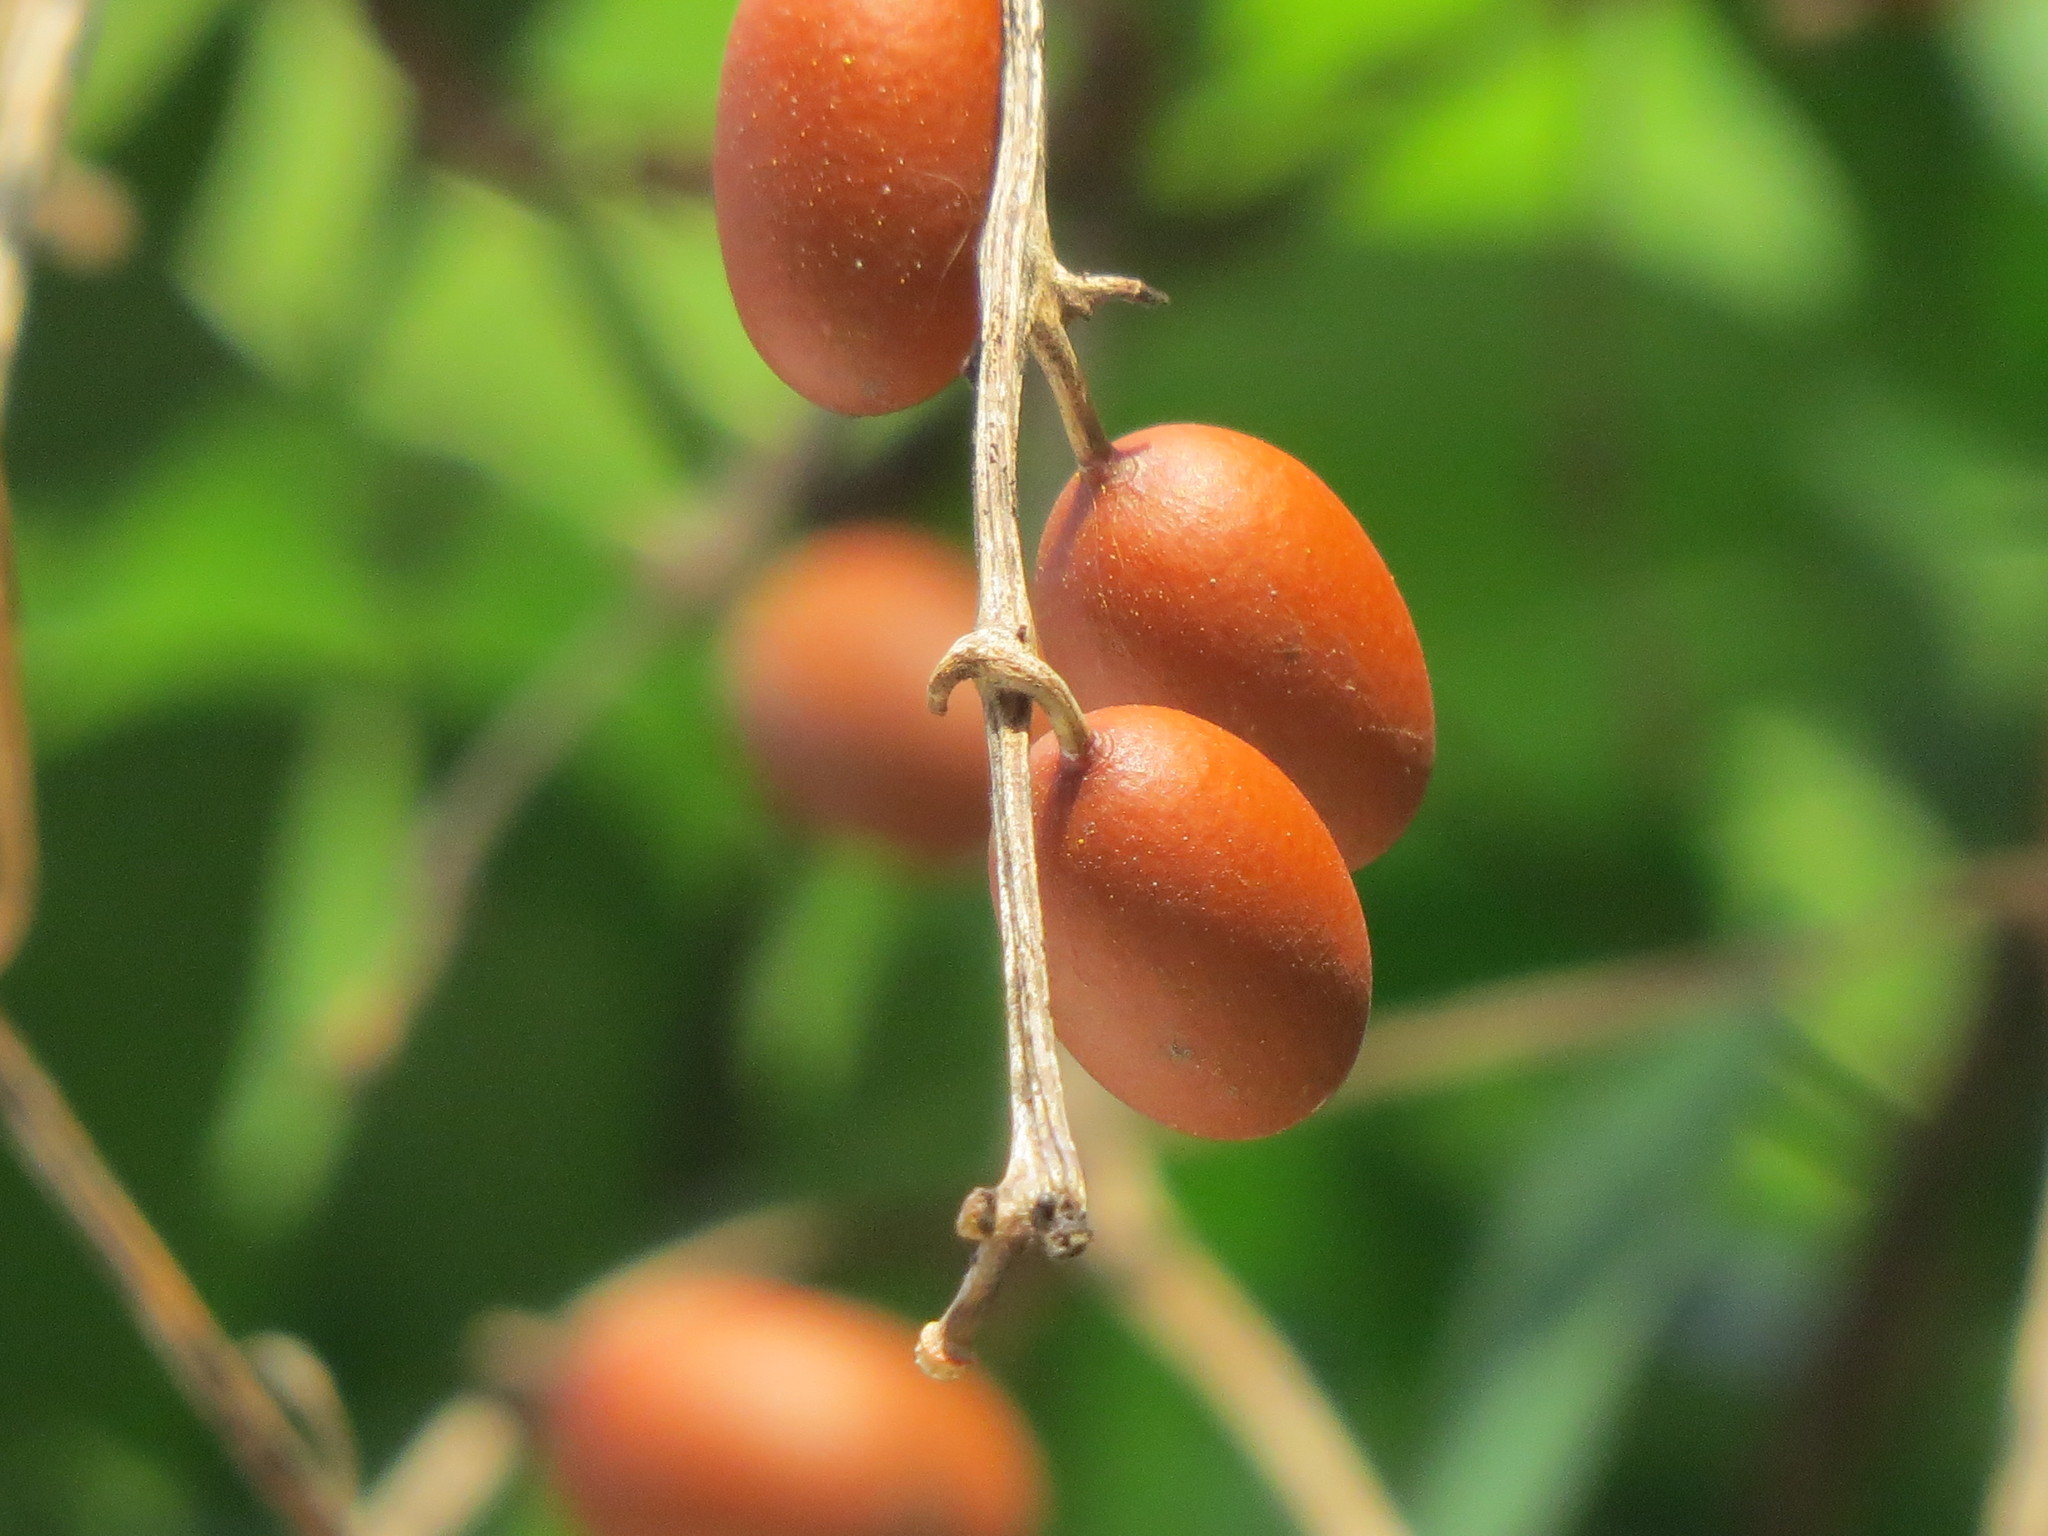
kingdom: Plantae
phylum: Tracheophyta
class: Magnoliopsida
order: Cucurbitales
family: Cucurbitaceae
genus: Cayaponia
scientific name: Cayaponia racemosa
